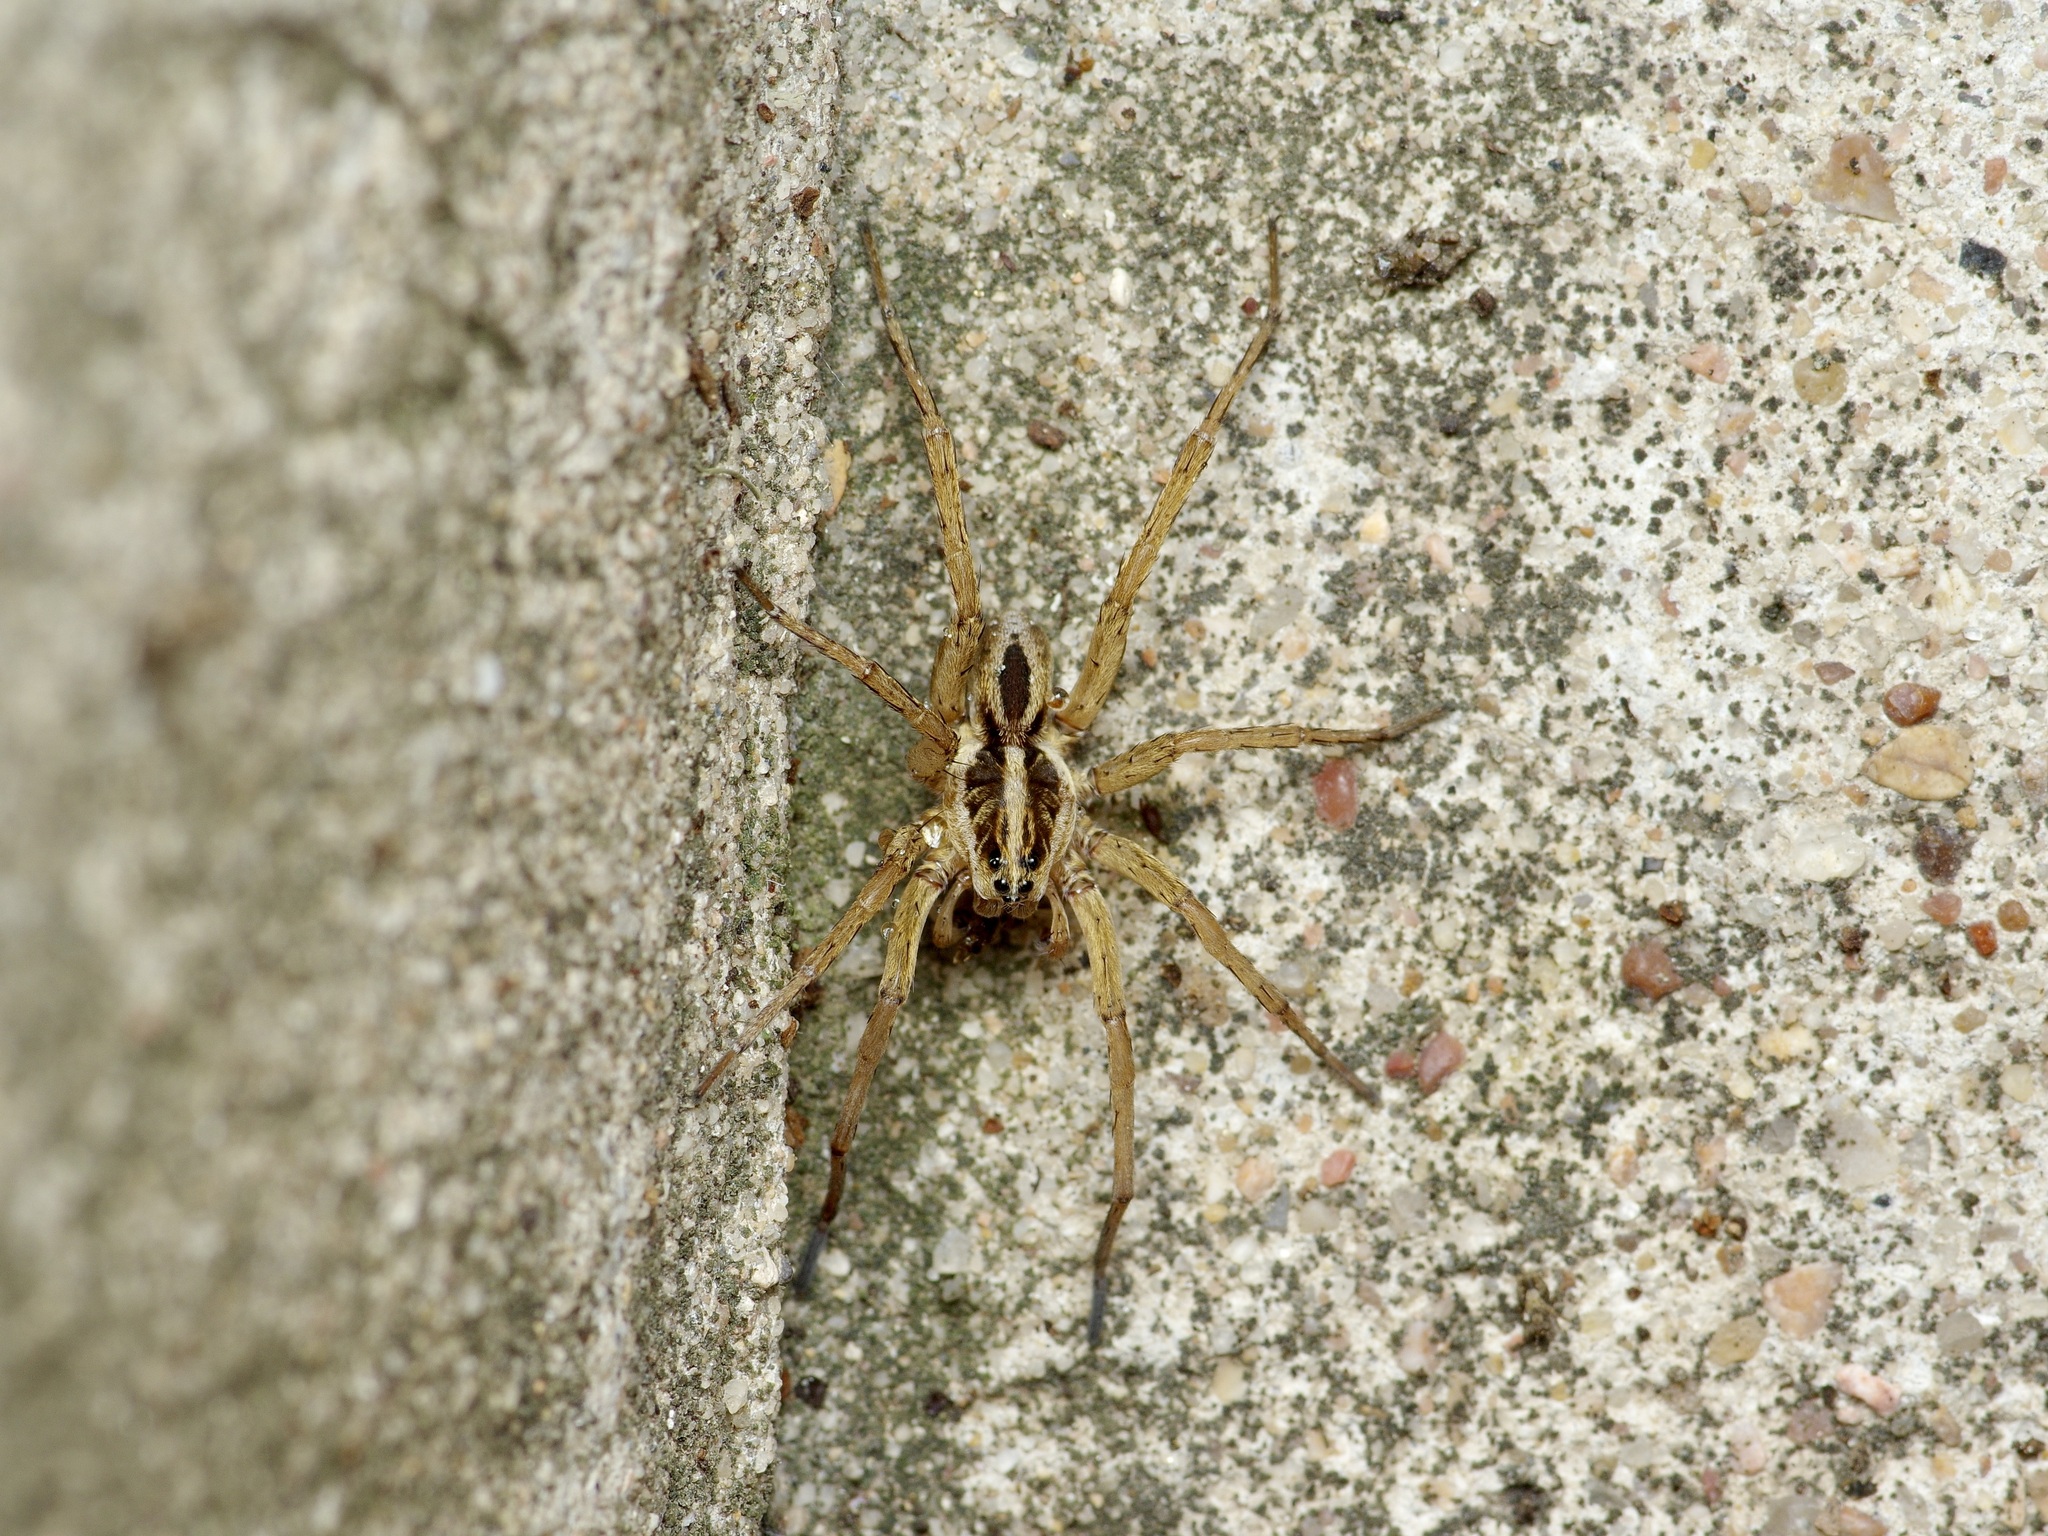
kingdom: Animalia
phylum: Arthropoda
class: Arachnida
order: Araneae
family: Lycosidae
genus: Tigrosa
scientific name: Tigrosa annexa
